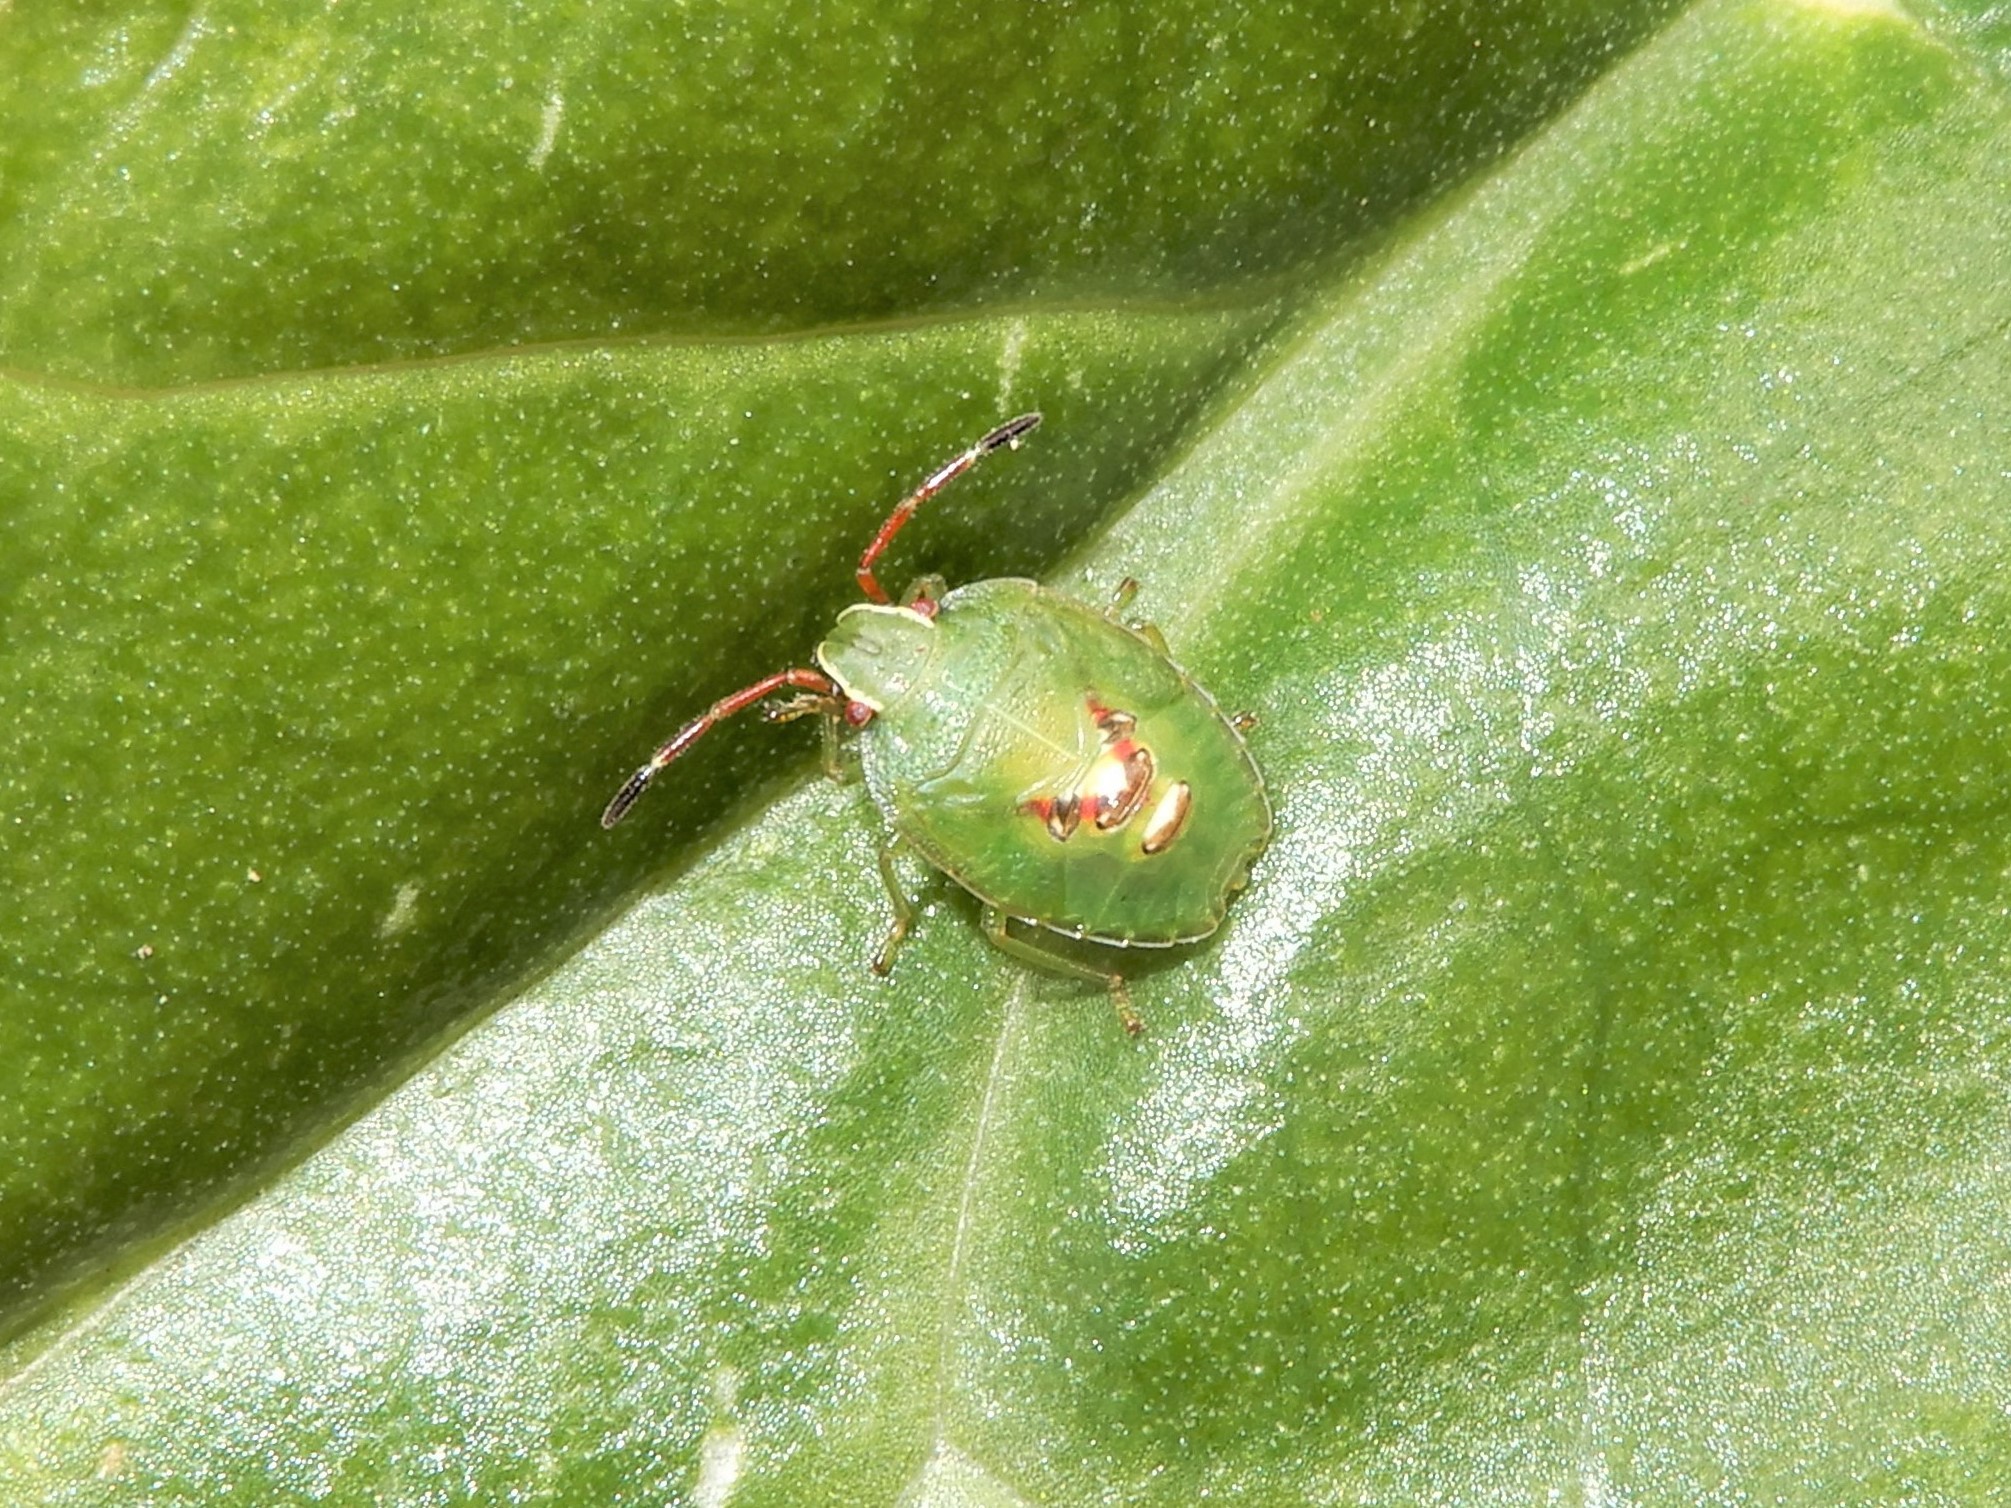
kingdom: Animalia
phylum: Arthropoda
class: Insecta
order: Hemiptera
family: Acanthosomatidae
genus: Oncacontias
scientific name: Oncacontias vittatus
